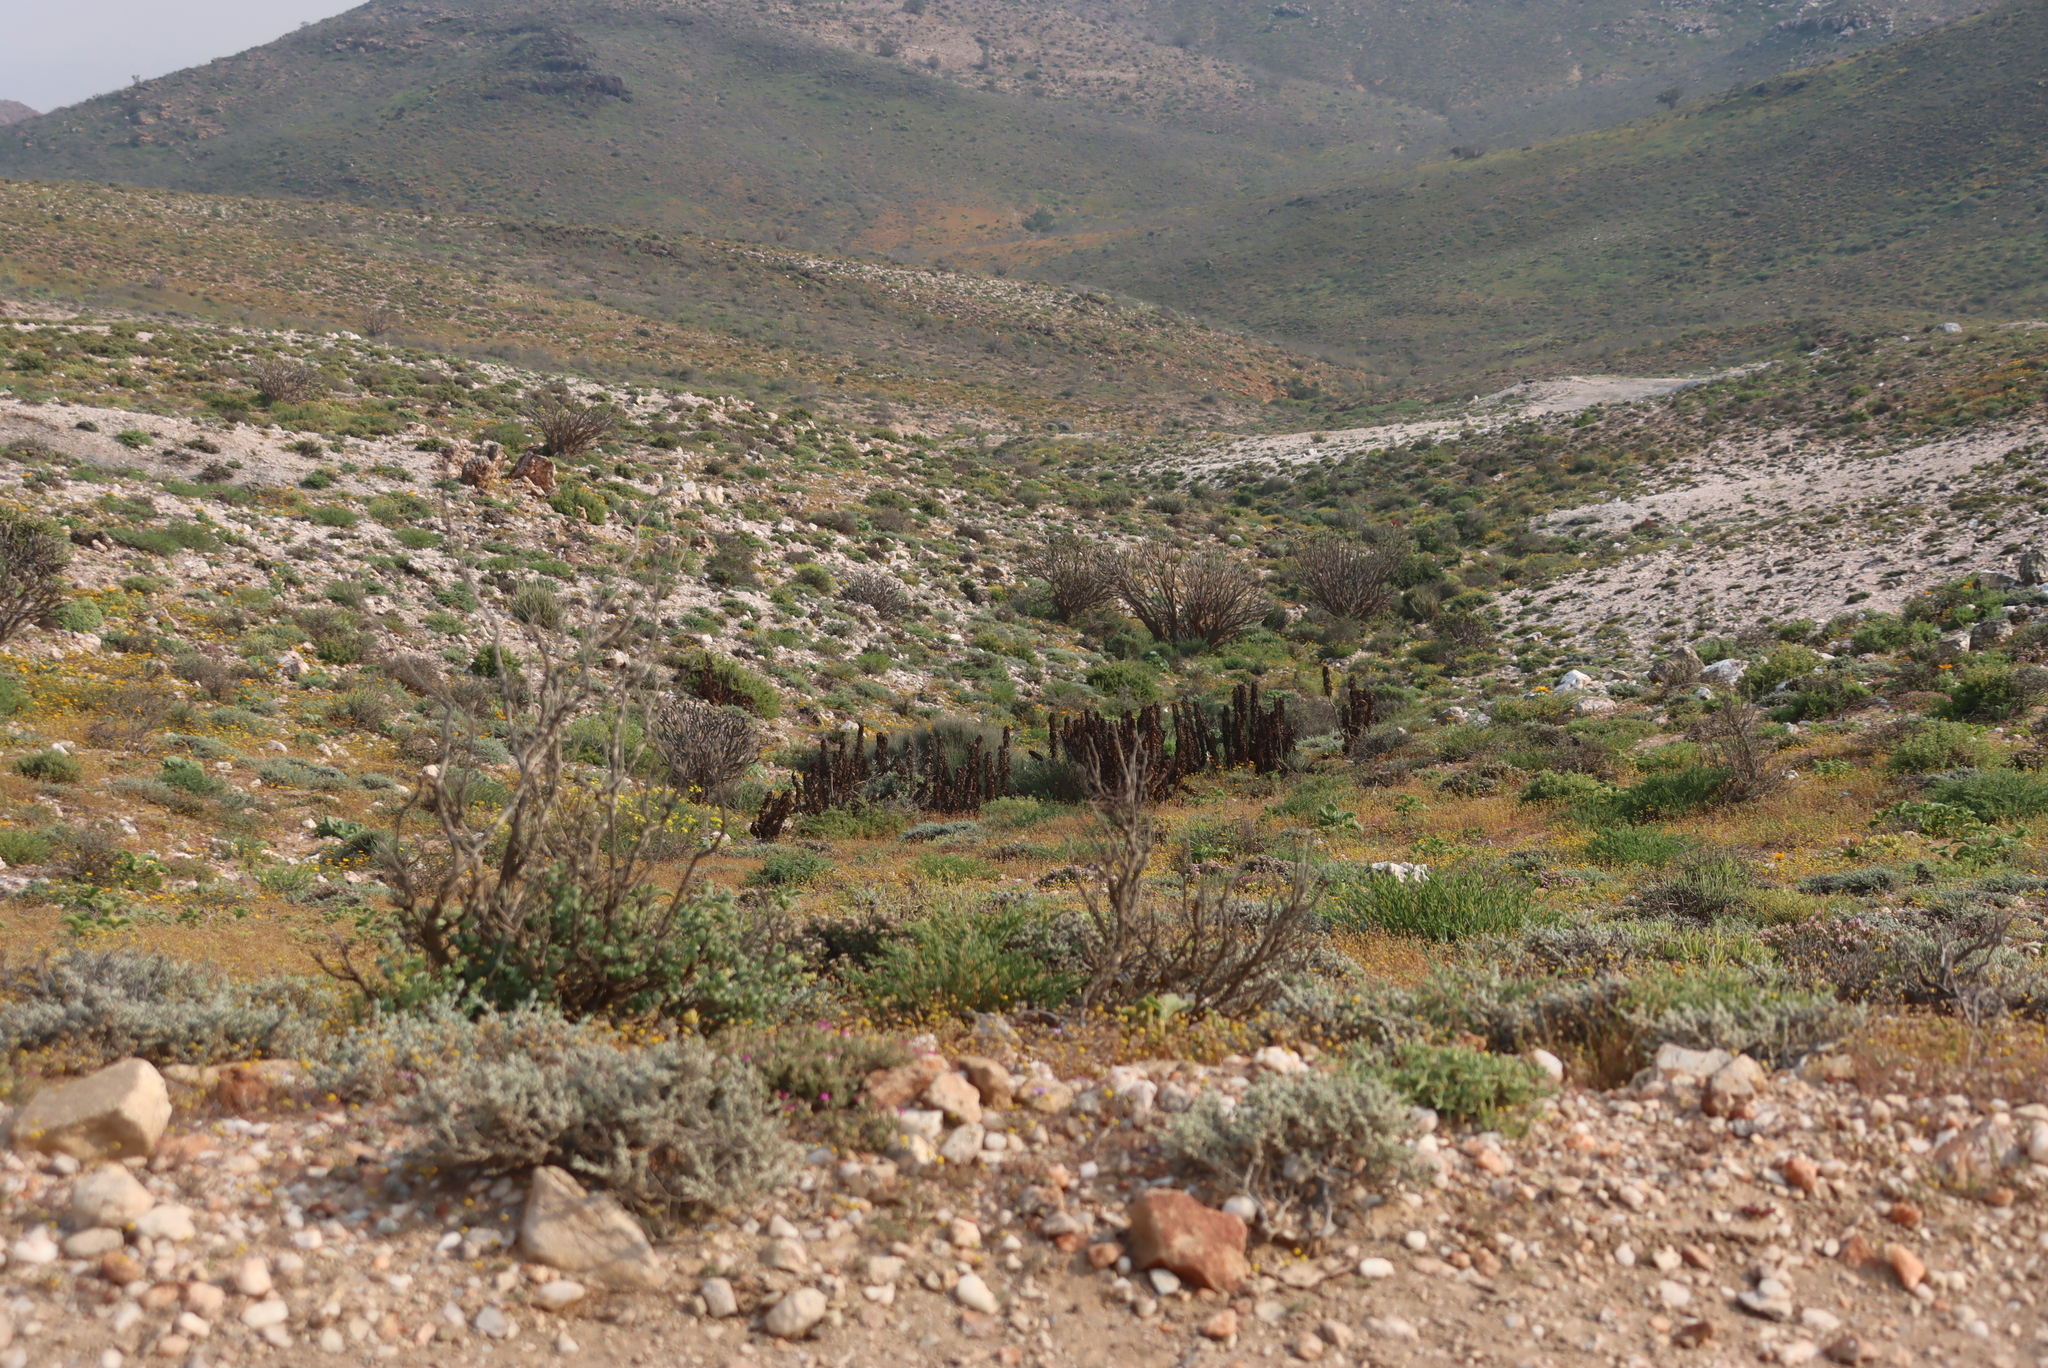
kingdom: Plantae
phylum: Tracheophyta
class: Liliopsida
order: Asparagales
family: Asphodelaceae
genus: Aloe
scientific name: Aloe pearsonii
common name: Pearson's aloe
